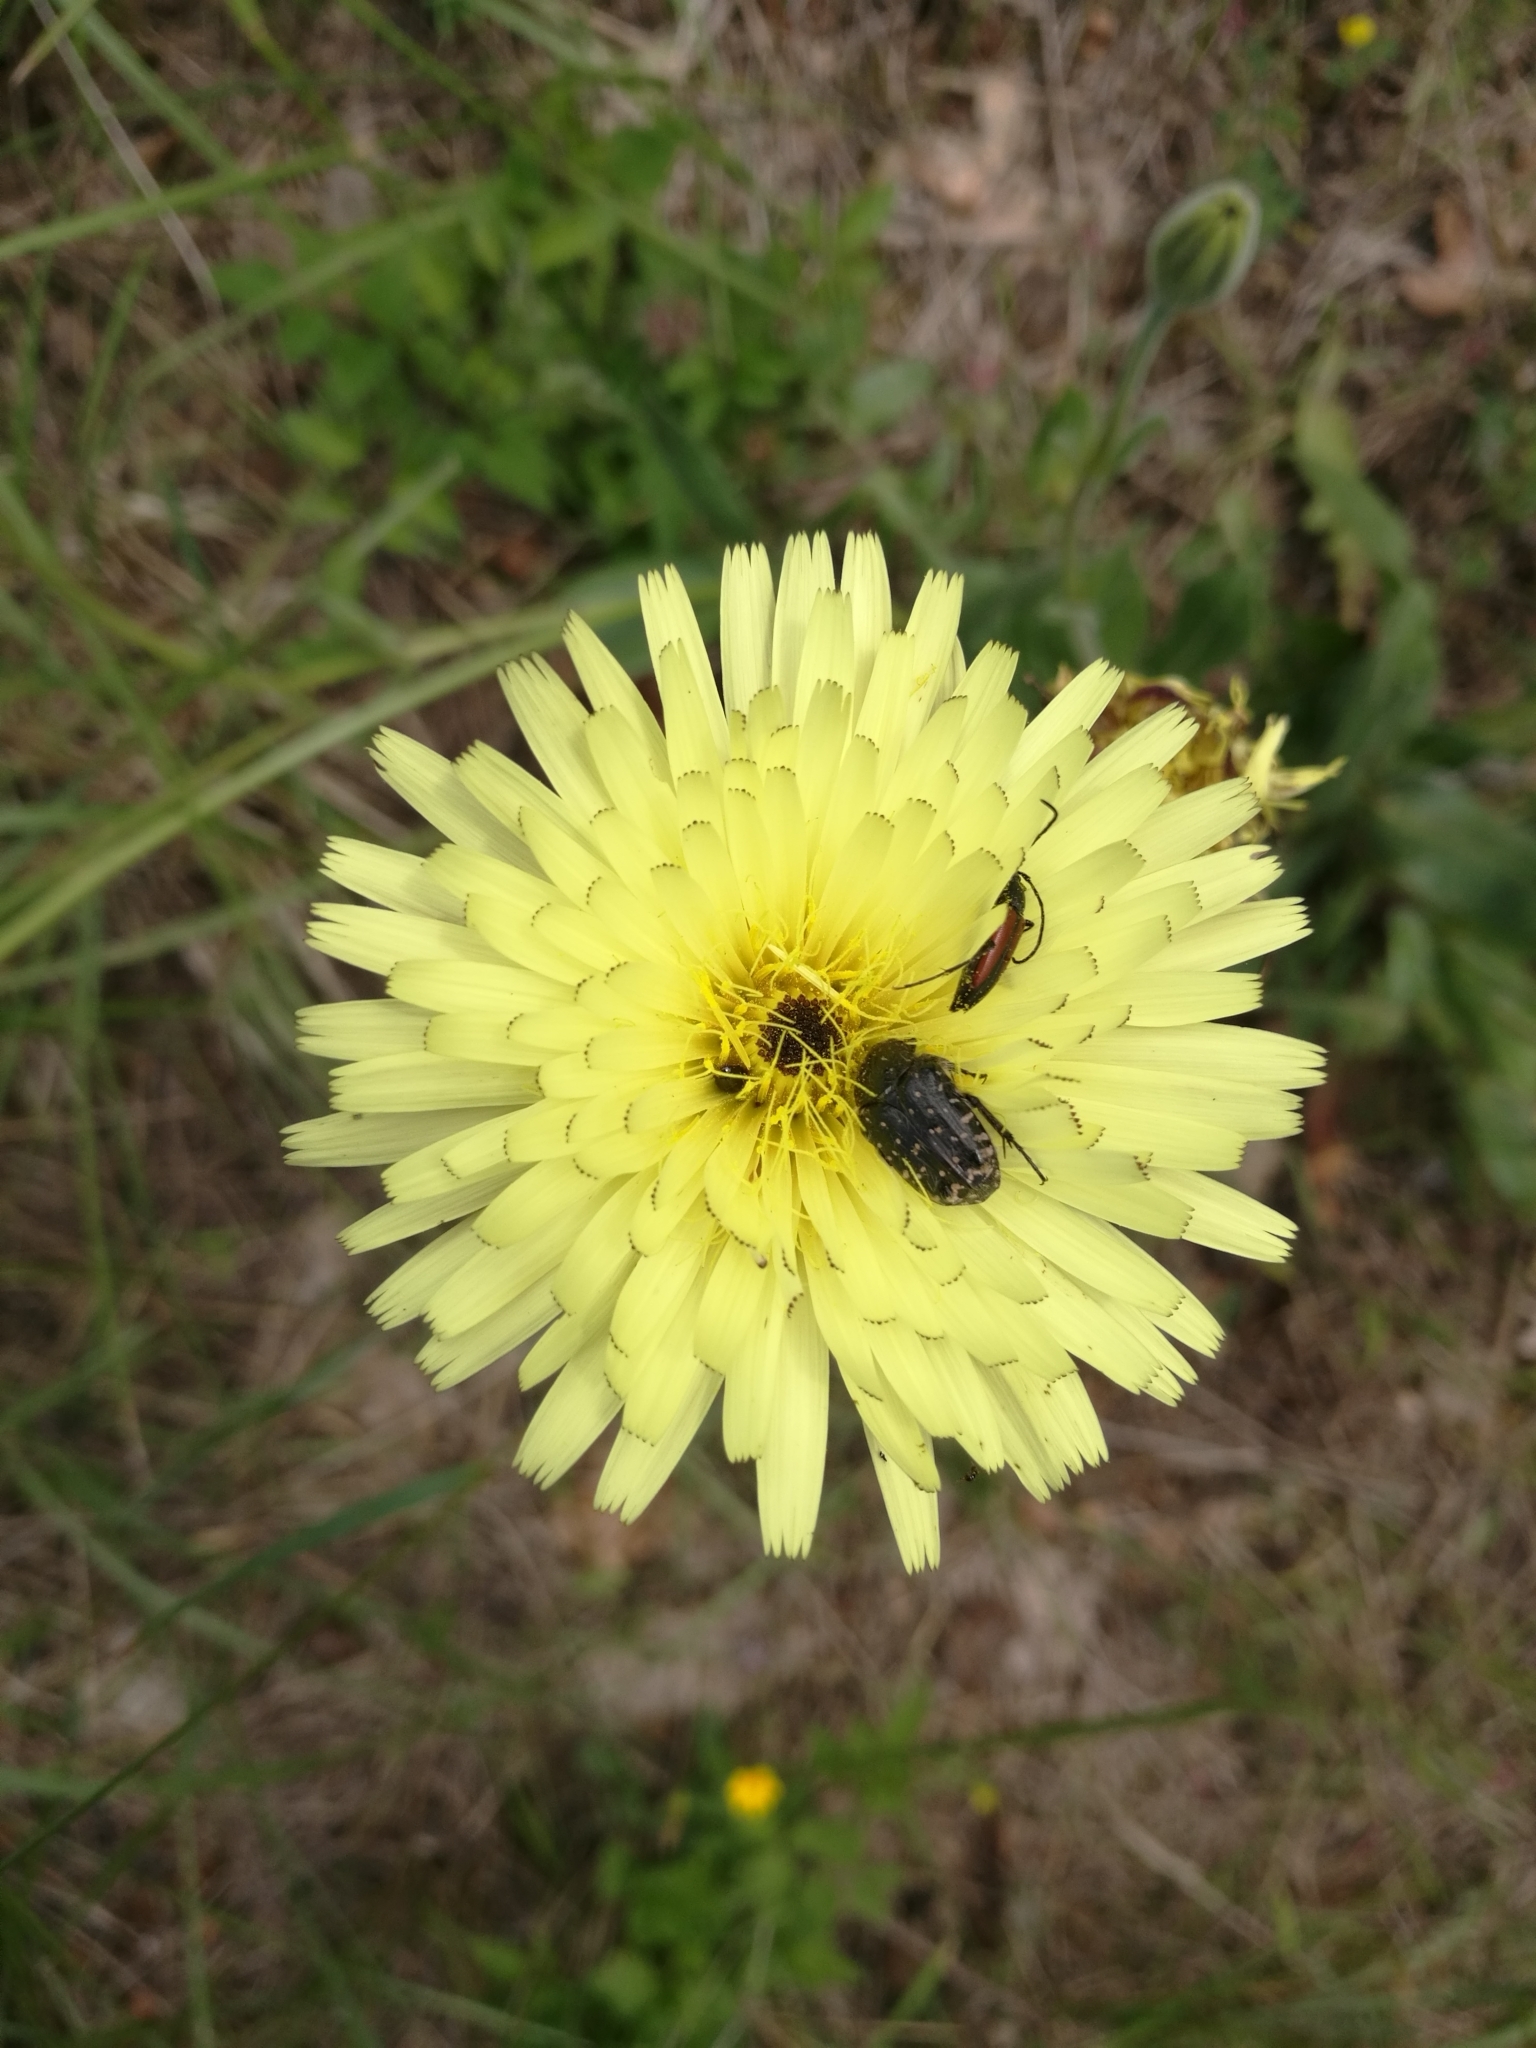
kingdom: Animalia
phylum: Arthropoda
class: Insecta
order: Coleoptera
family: Scarabaeidae
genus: Oxythyrea
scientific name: Oxythyrea funesta
